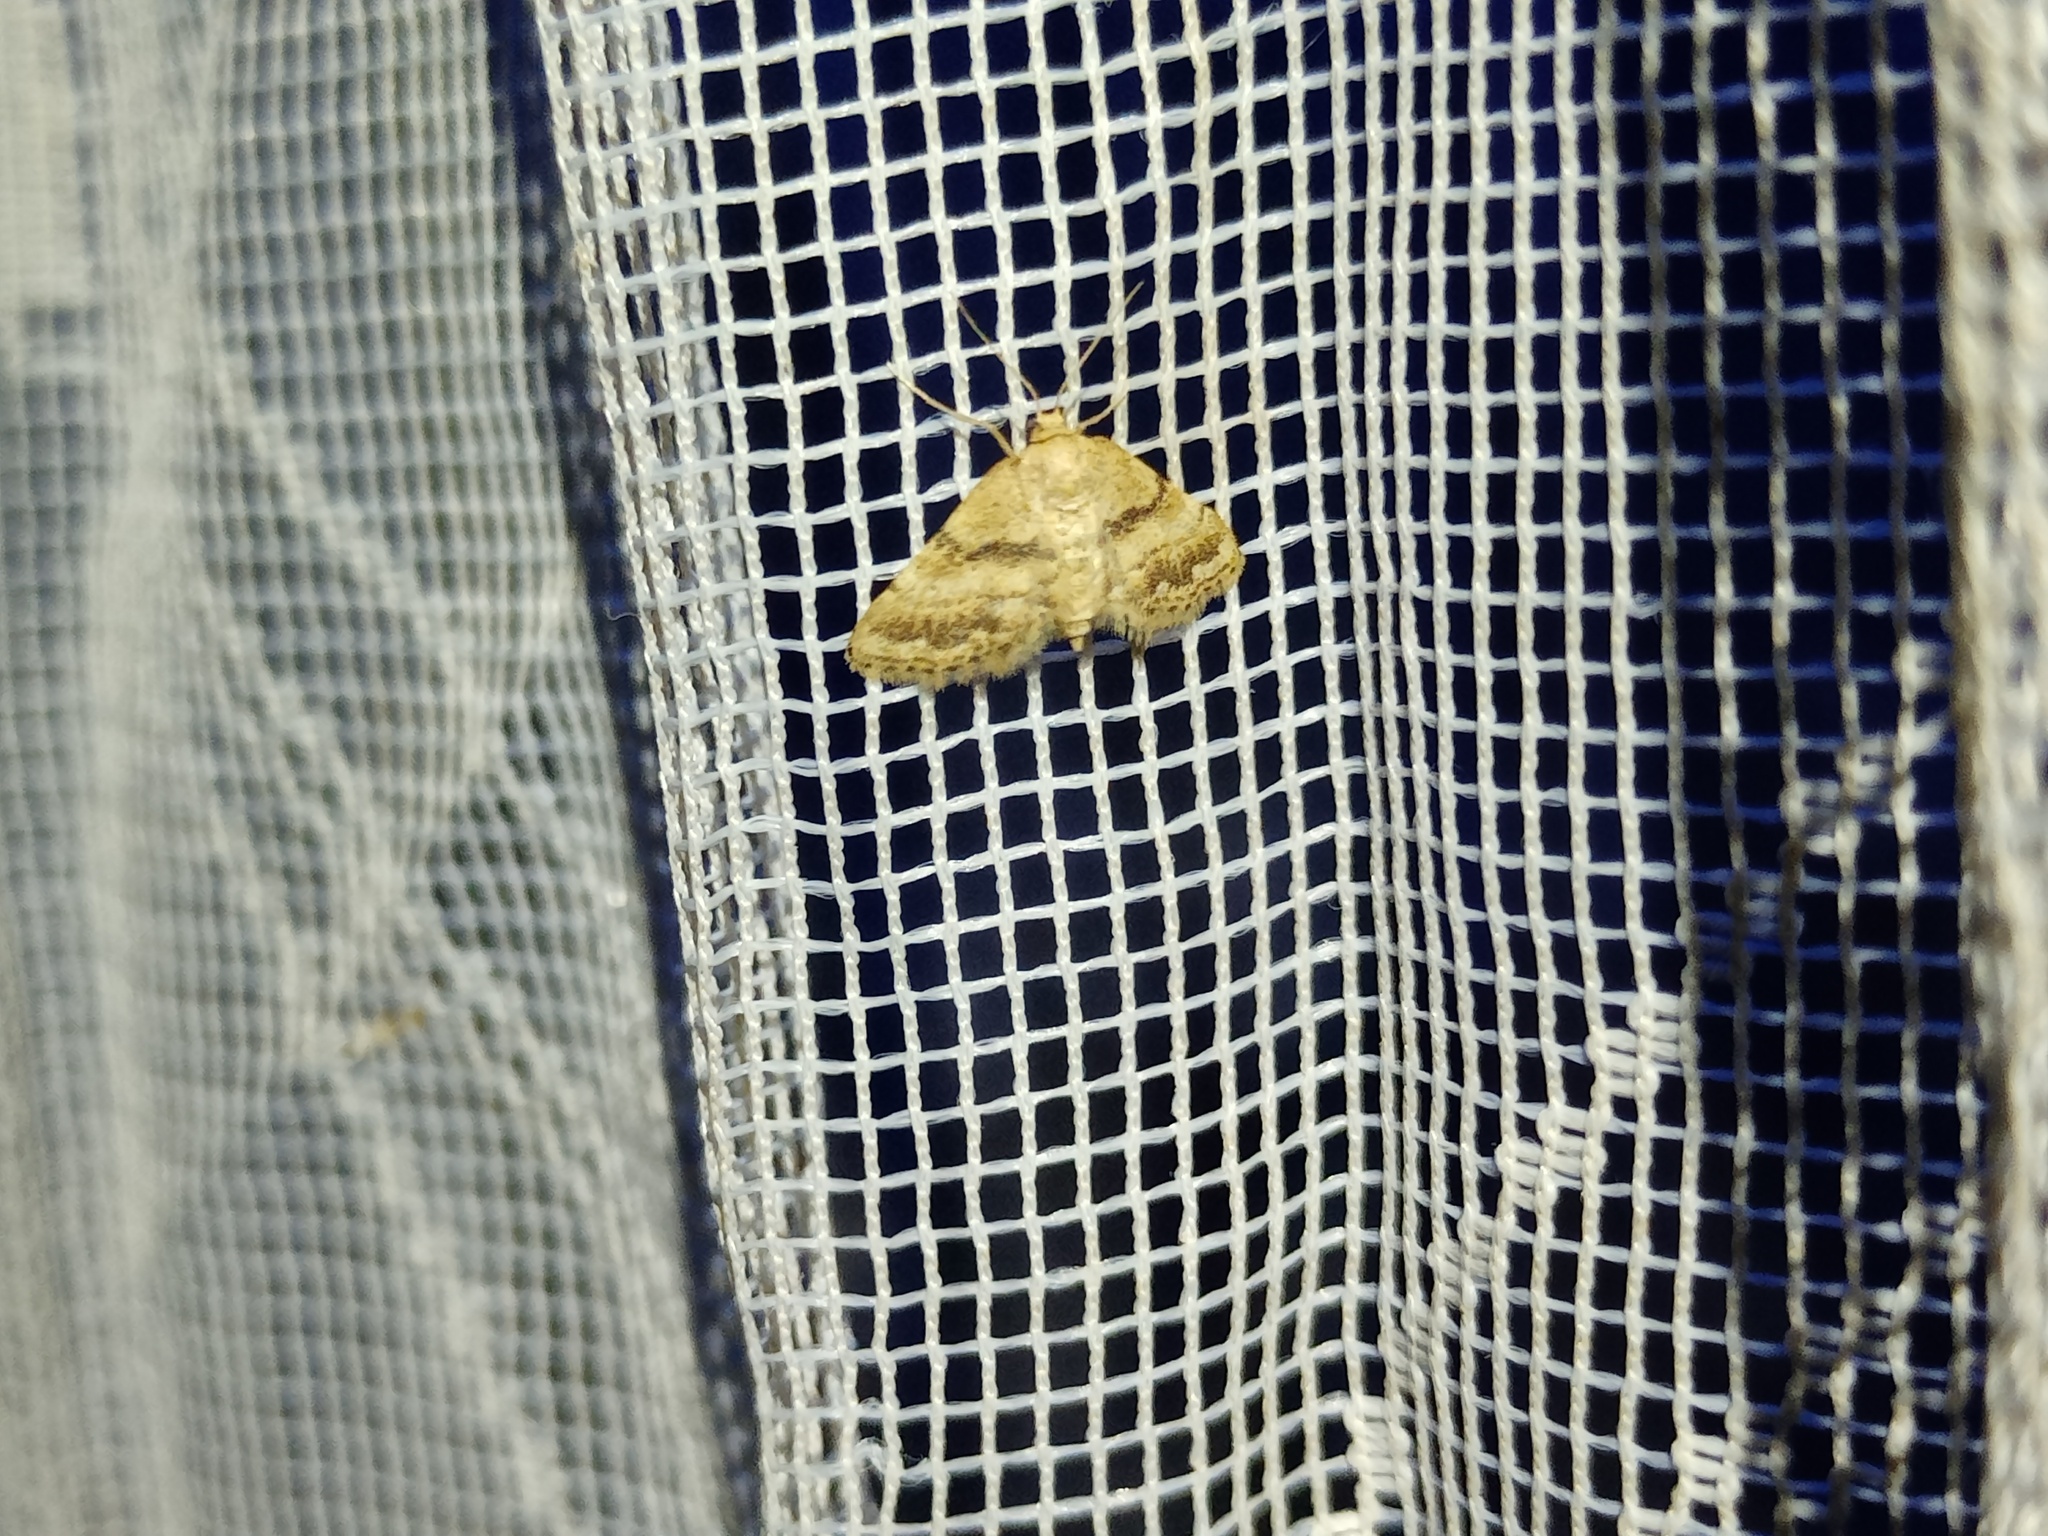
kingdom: Animalia
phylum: Arthropoda
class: Insecta
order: Lepidoptera
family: Geometridae
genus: Idaea
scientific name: Idaea inclinata
